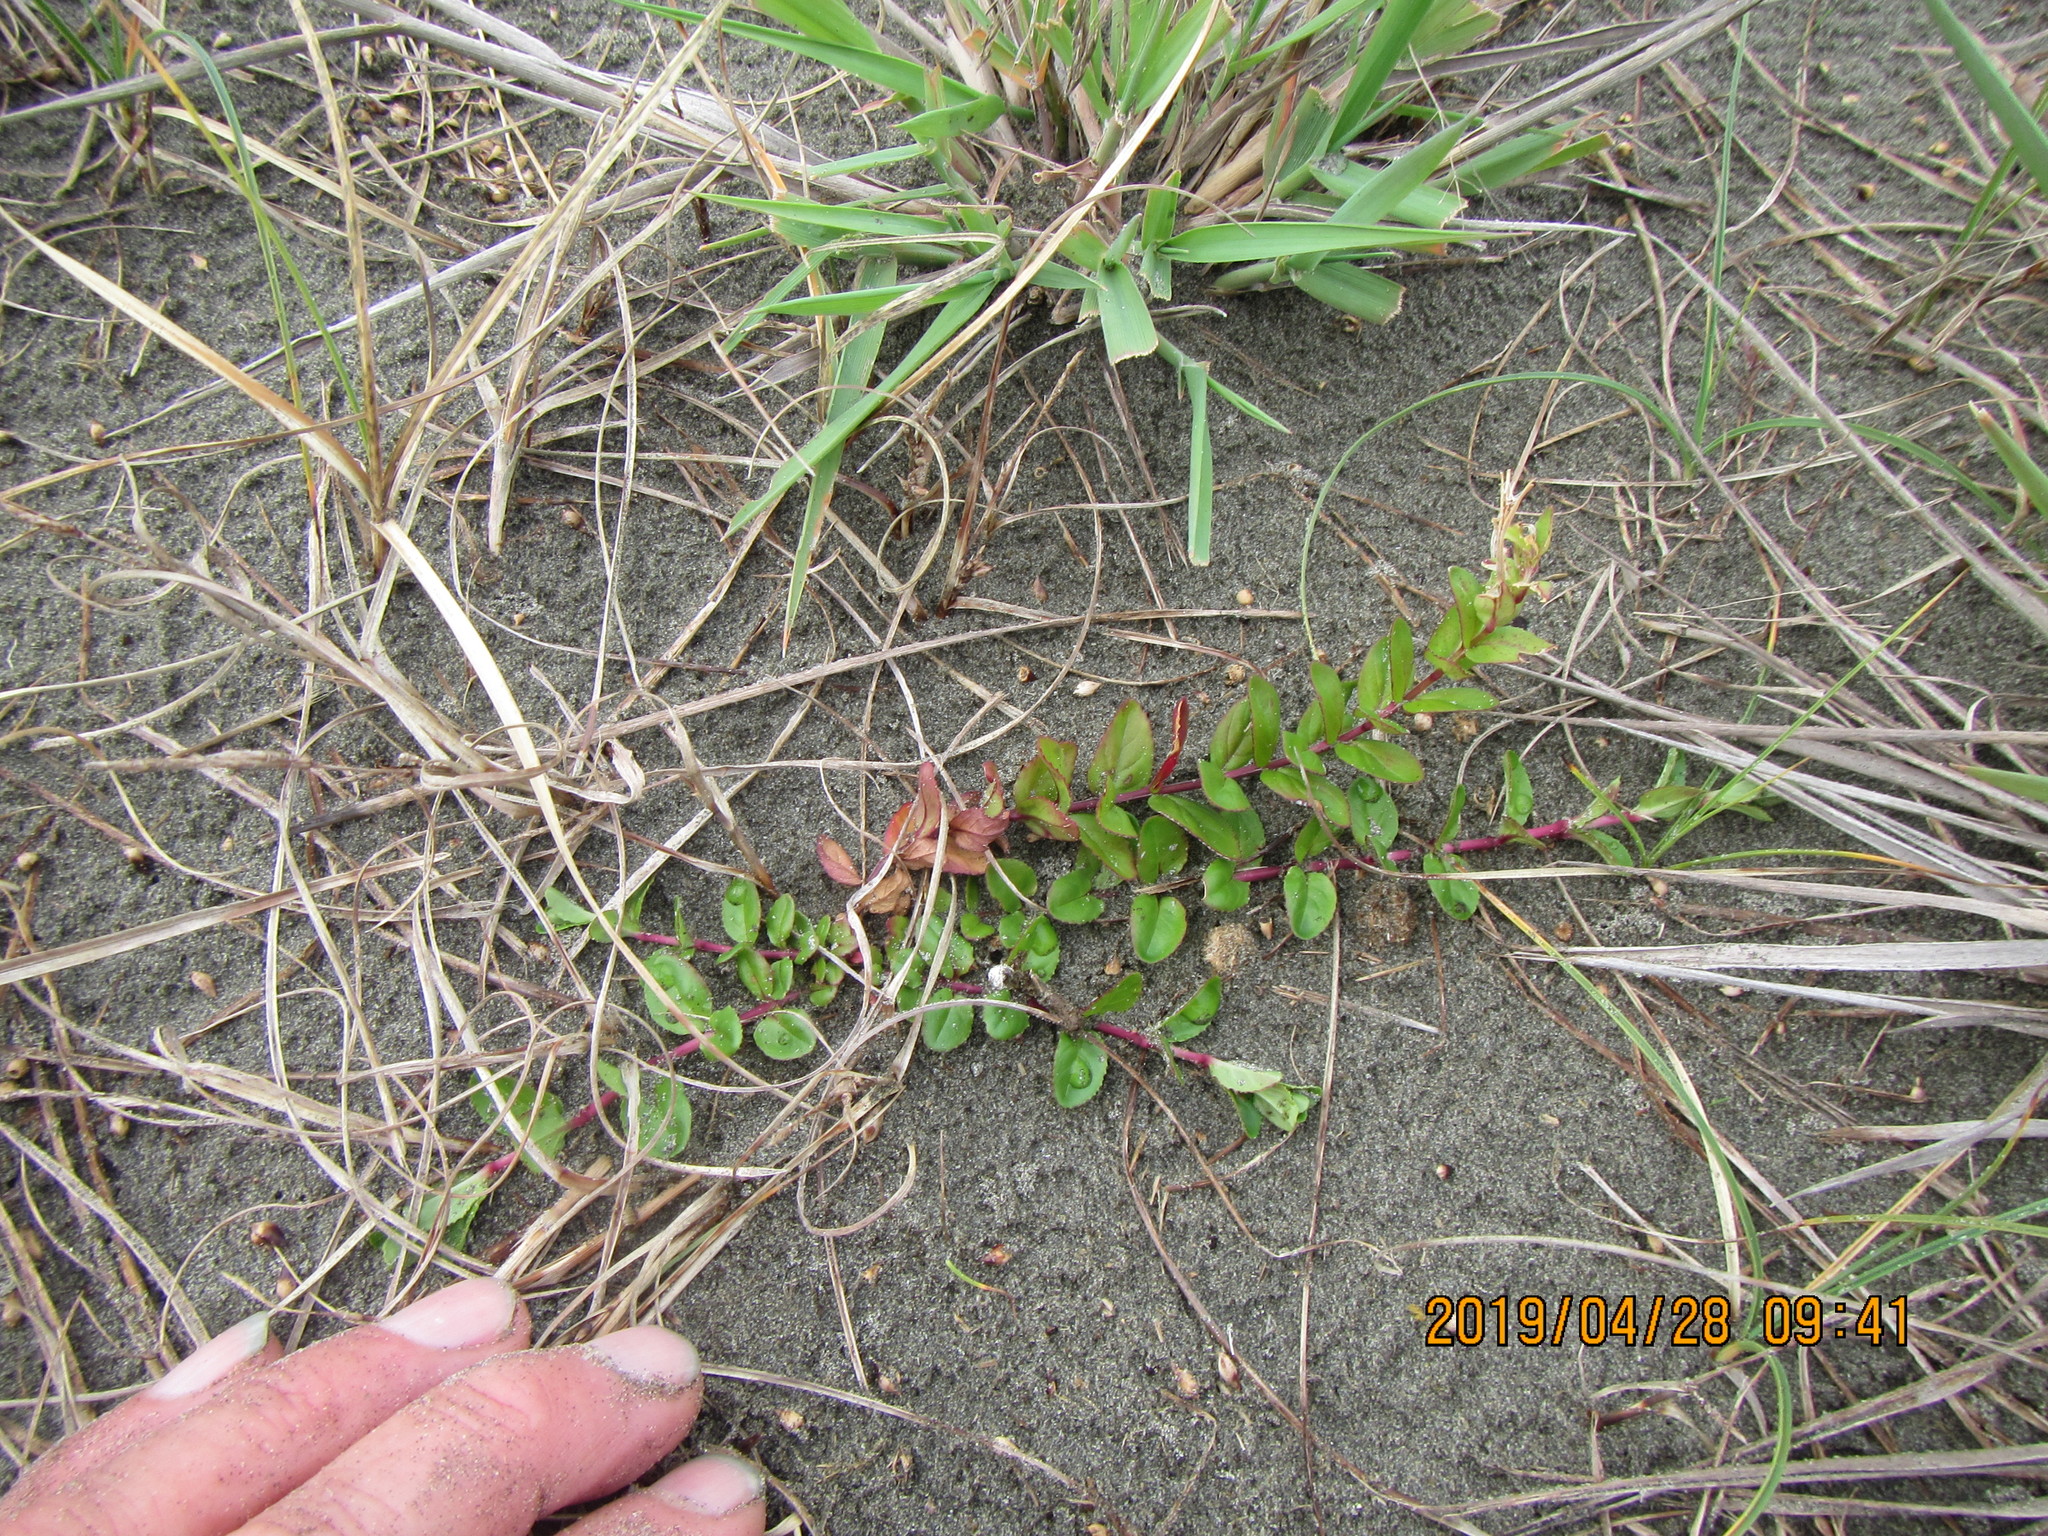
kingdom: Plantae
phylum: Tracheophyta
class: Magnoliopsida
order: Myrtales
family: Onagraceae
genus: Epilobium
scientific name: Epilobium billardiereanum
